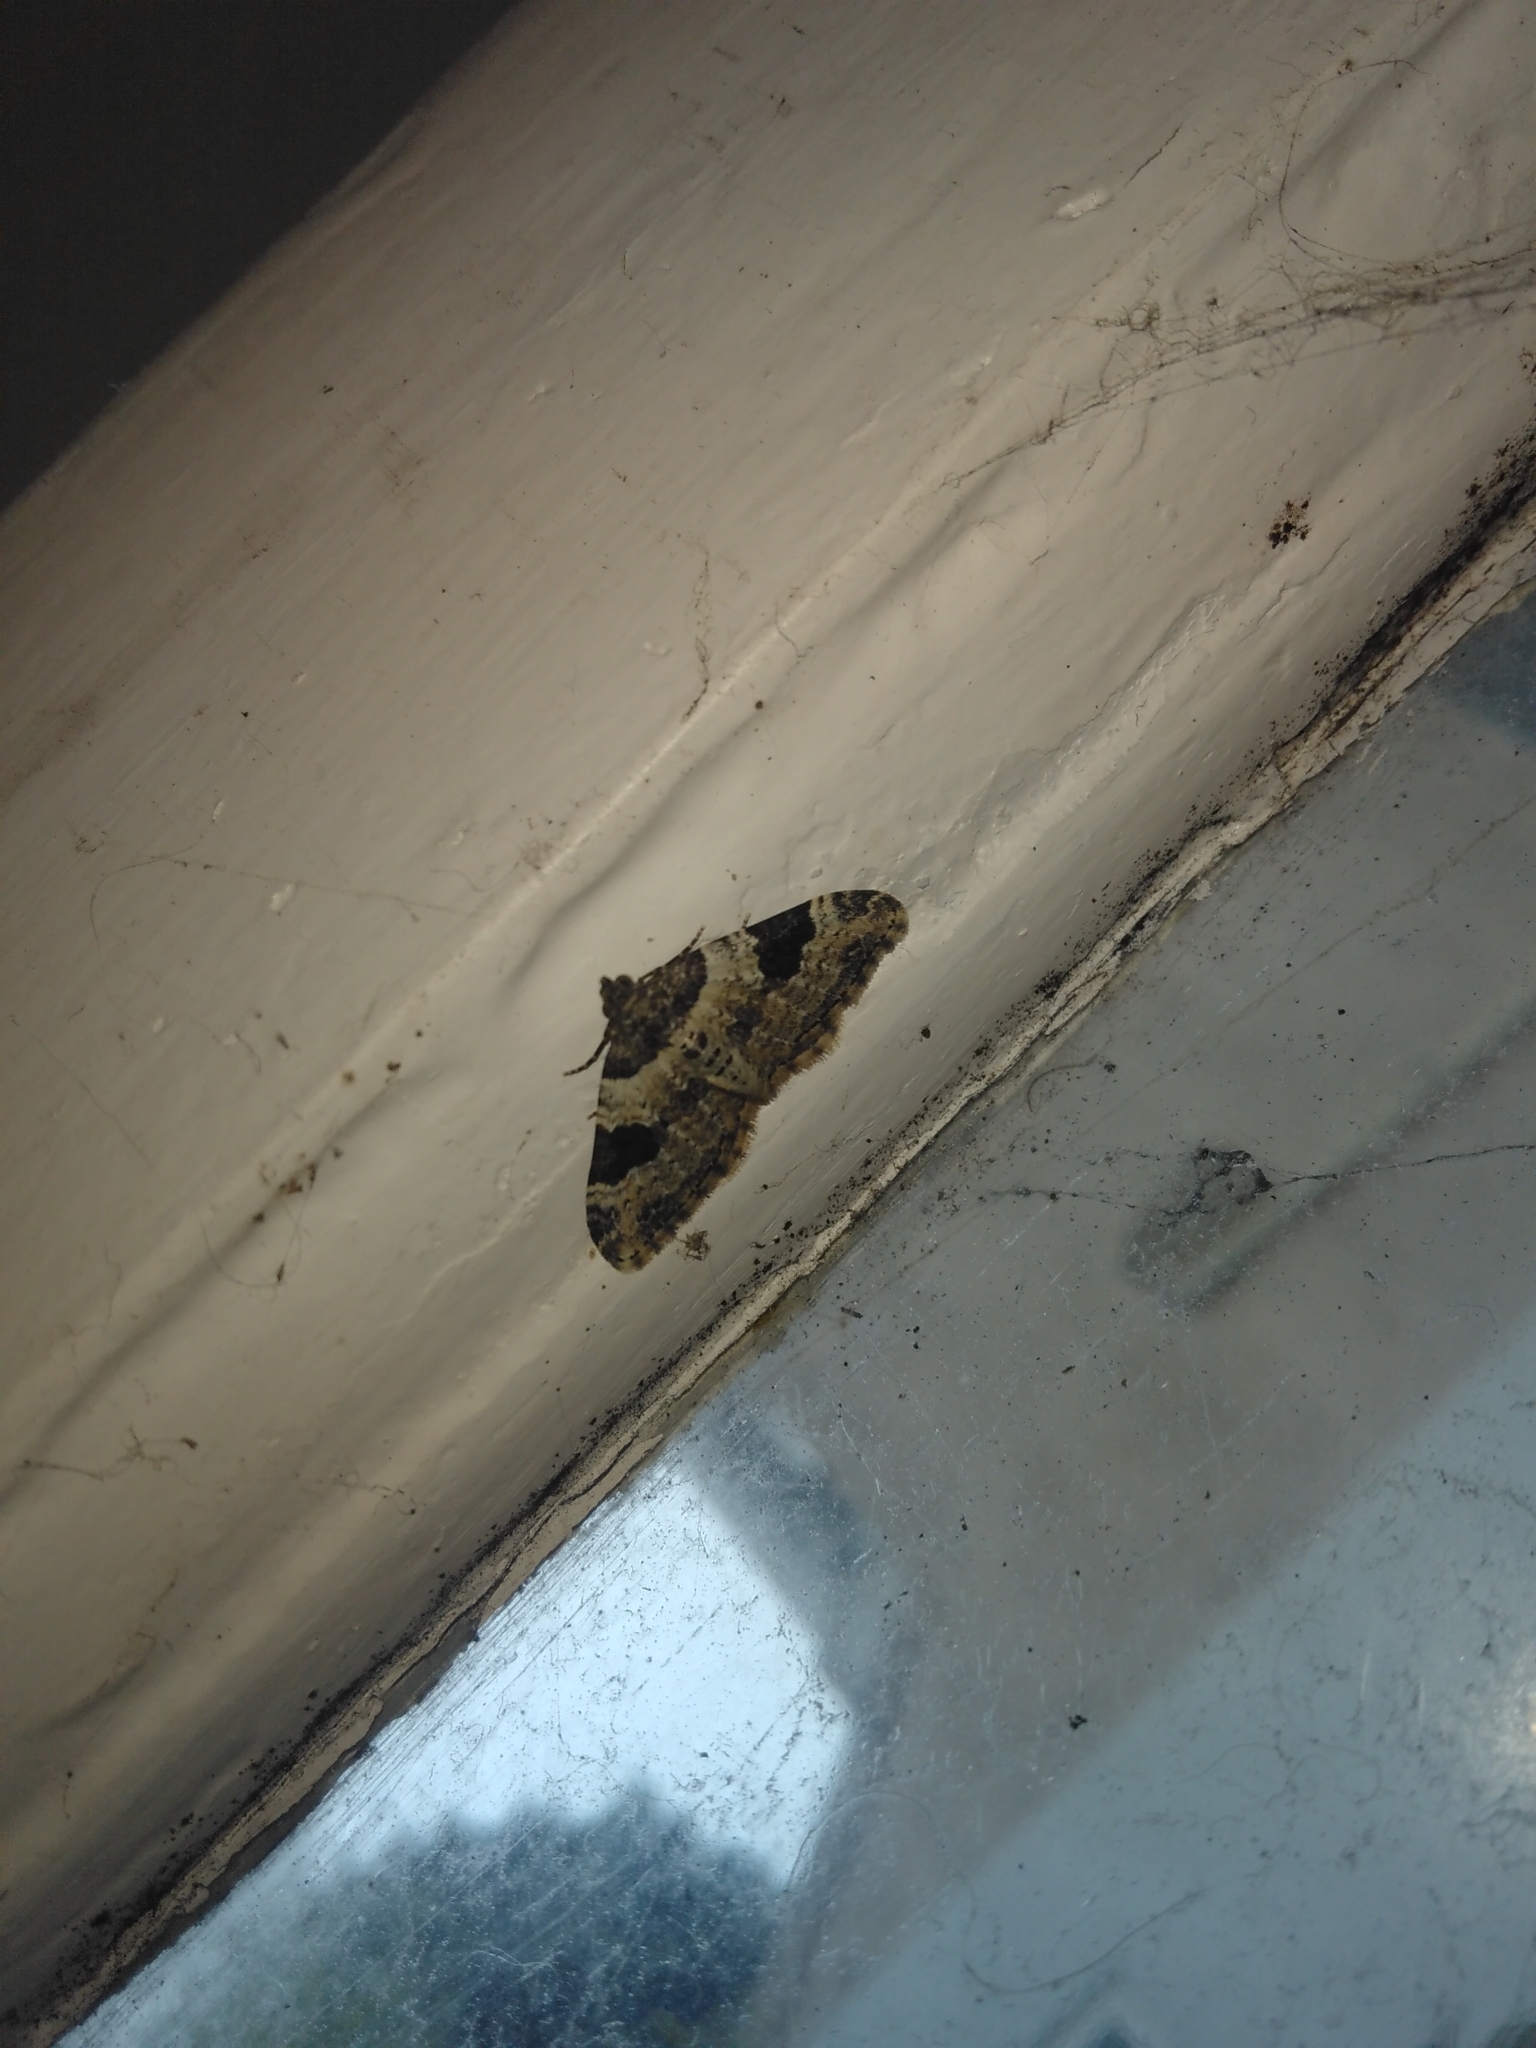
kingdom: Animalia
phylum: Arthropoda
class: Insecta
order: Lepidoptera
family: Geometridae
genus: Xanthorhoe
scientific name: Xanthorhoe fluctuata
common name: Garden carpet
